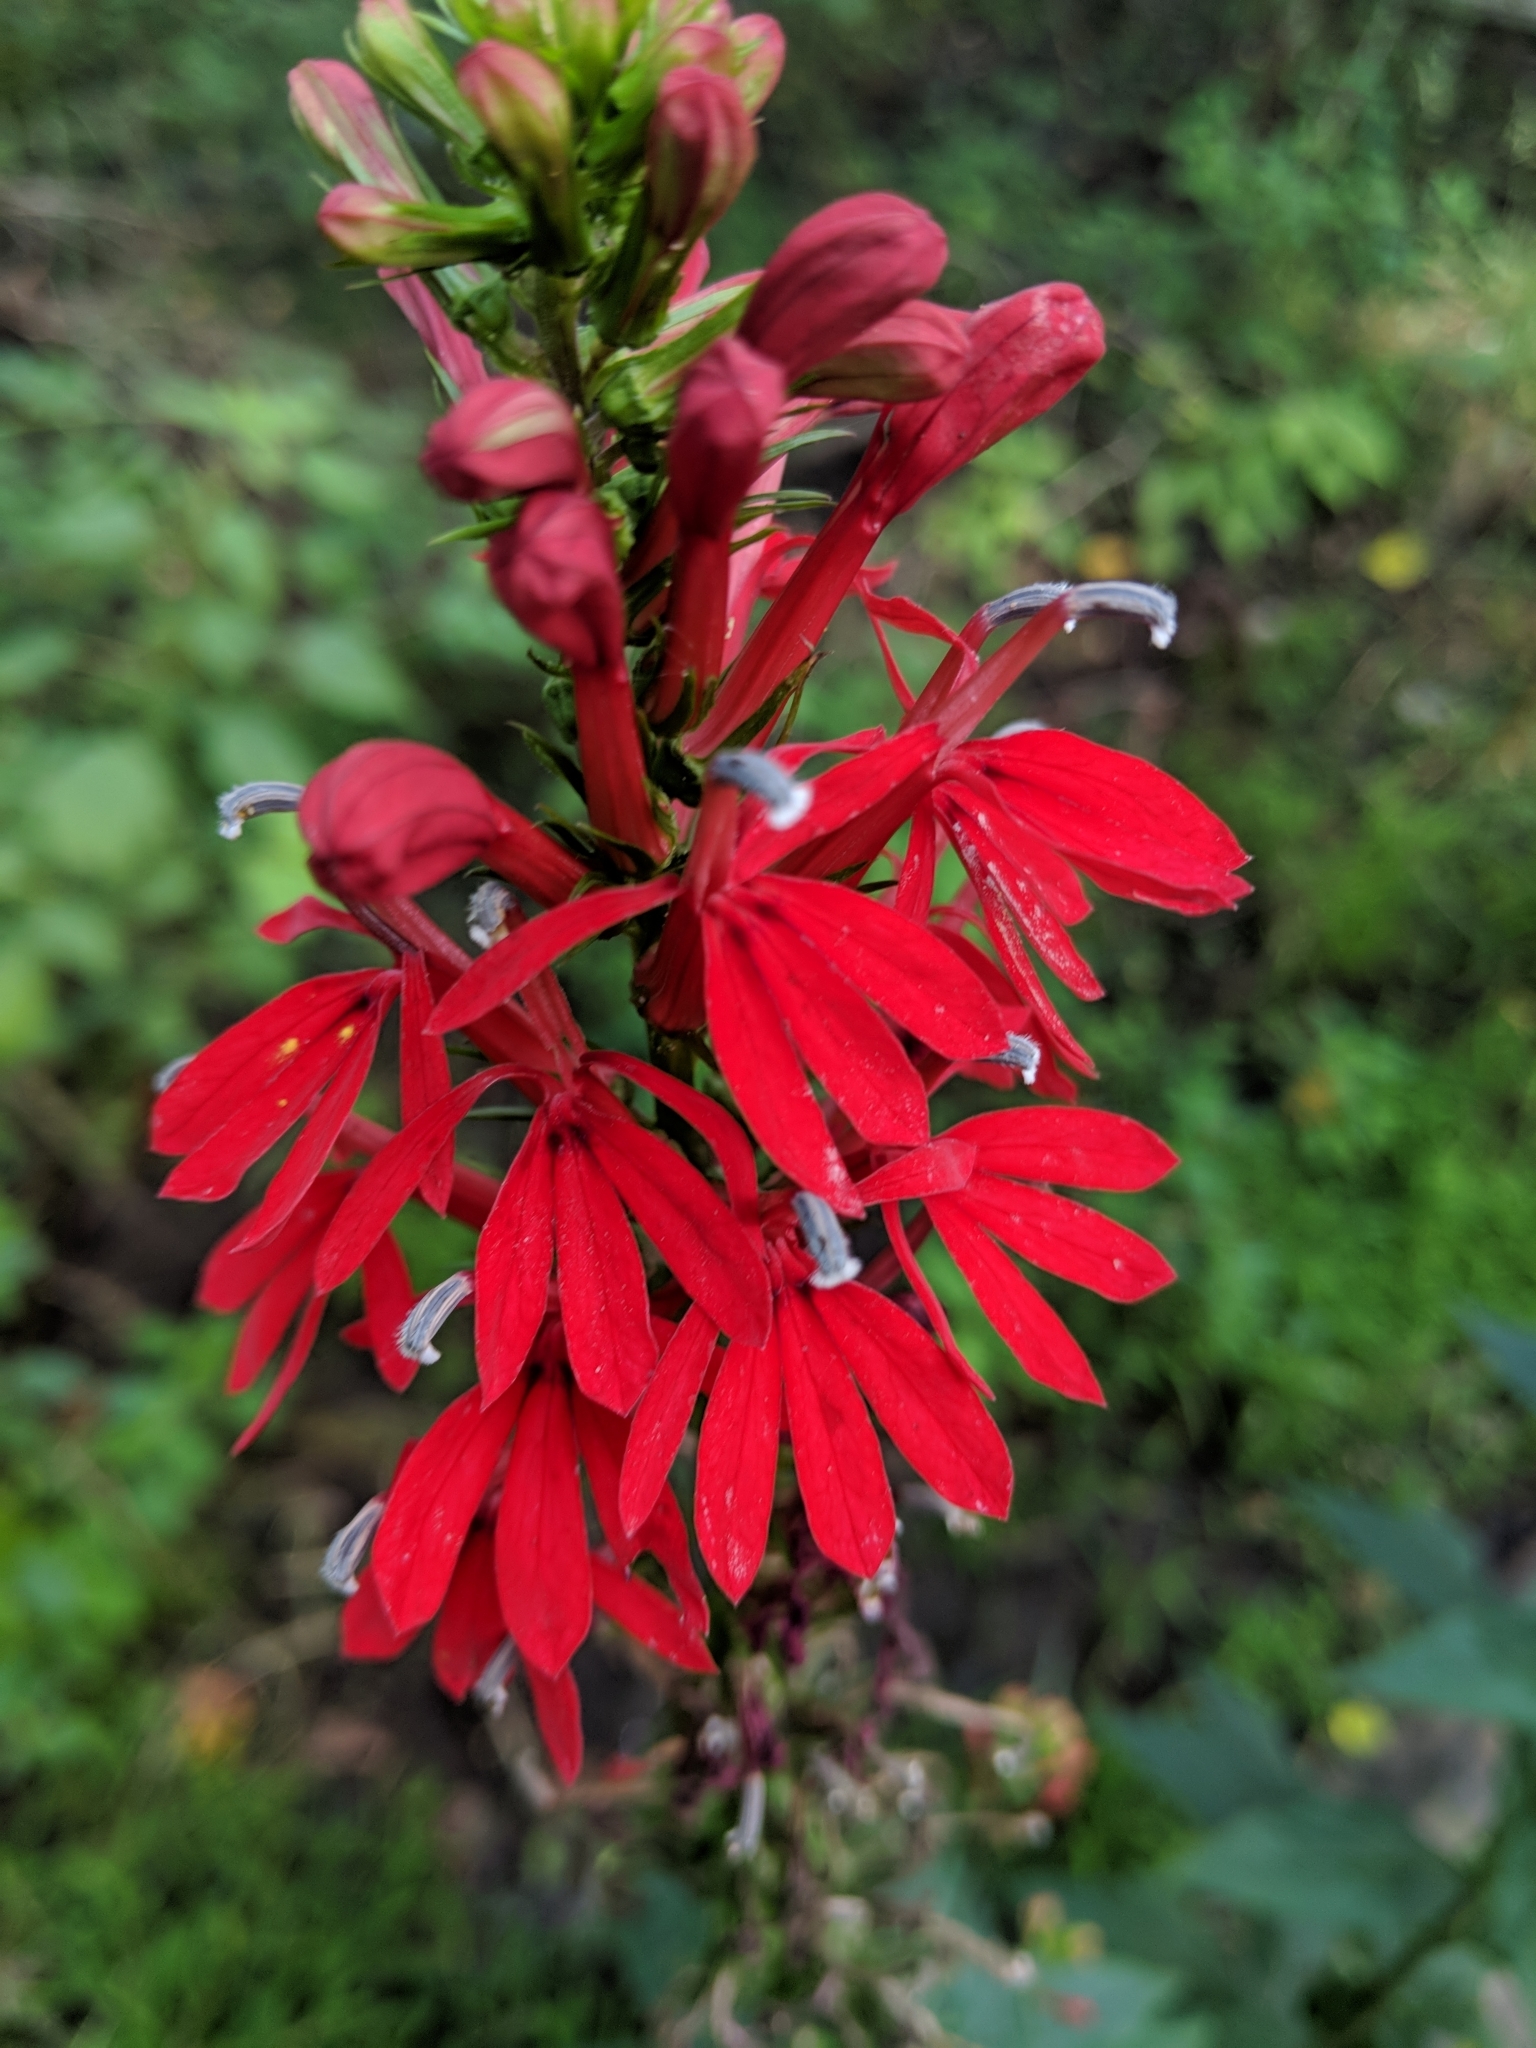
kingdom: Plantae
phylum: Tracheophyta
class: Magnoliopsida
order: Asterales
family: Campanulaceae
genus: Lobelia
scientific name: Lobelia cardinalis
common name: Cardinal flower
